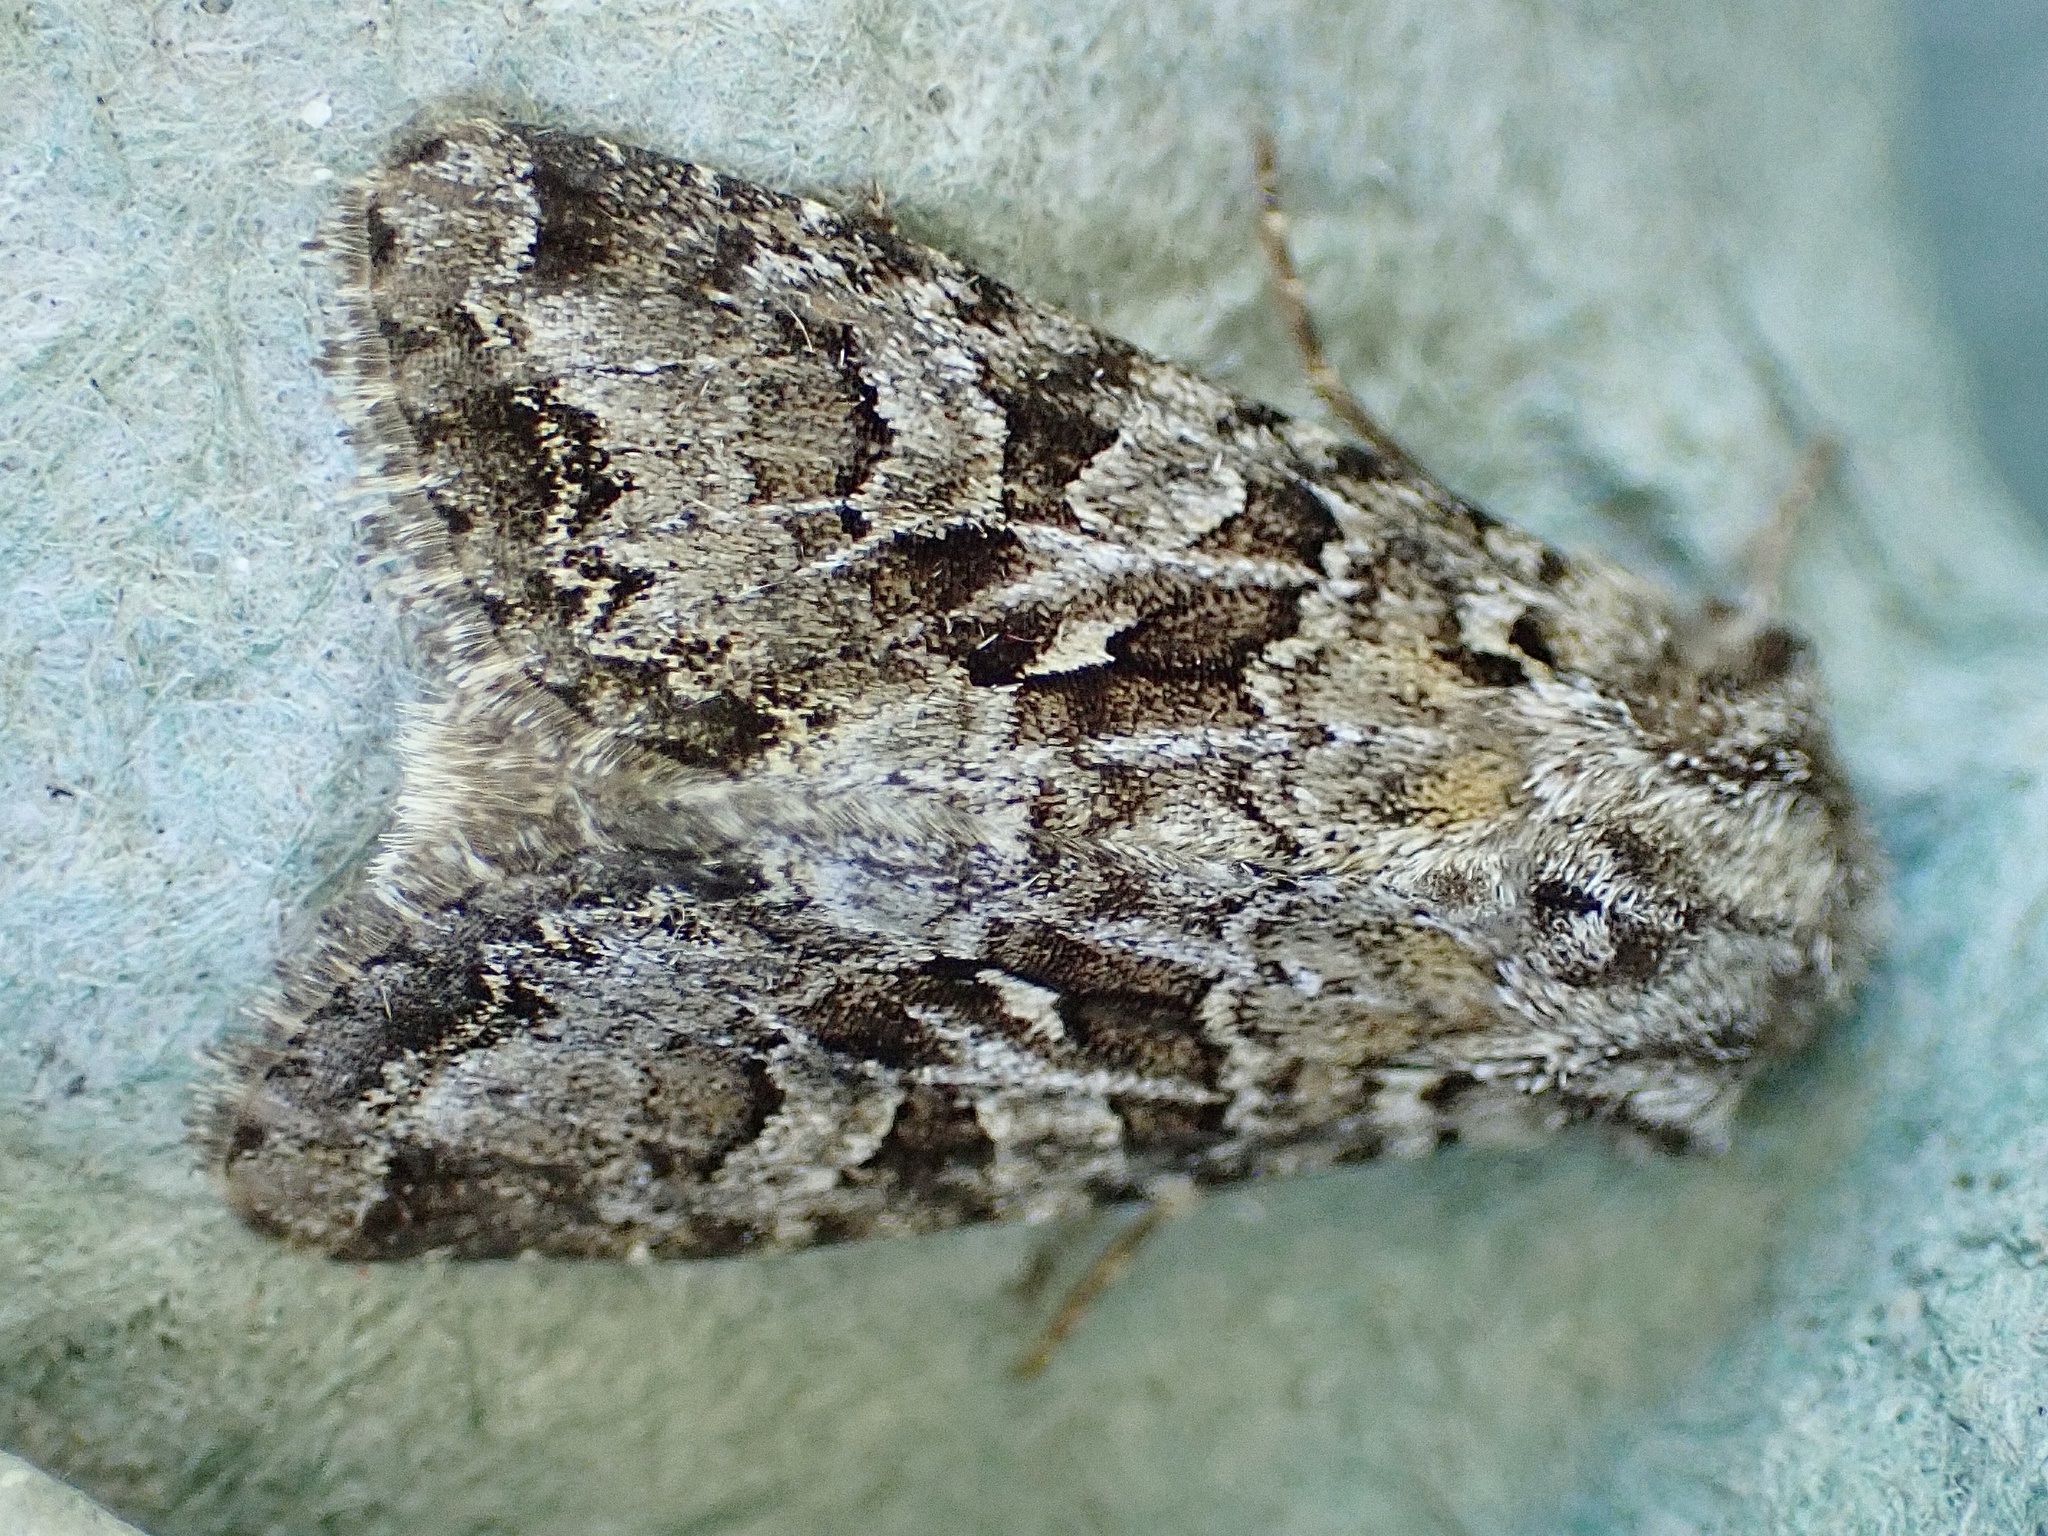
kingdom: Animalia
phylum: Arthropoda
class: Insecta
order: Lepidoptera
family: Noctuidae
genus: Hada
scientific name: Hada plebeja
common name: Shears
